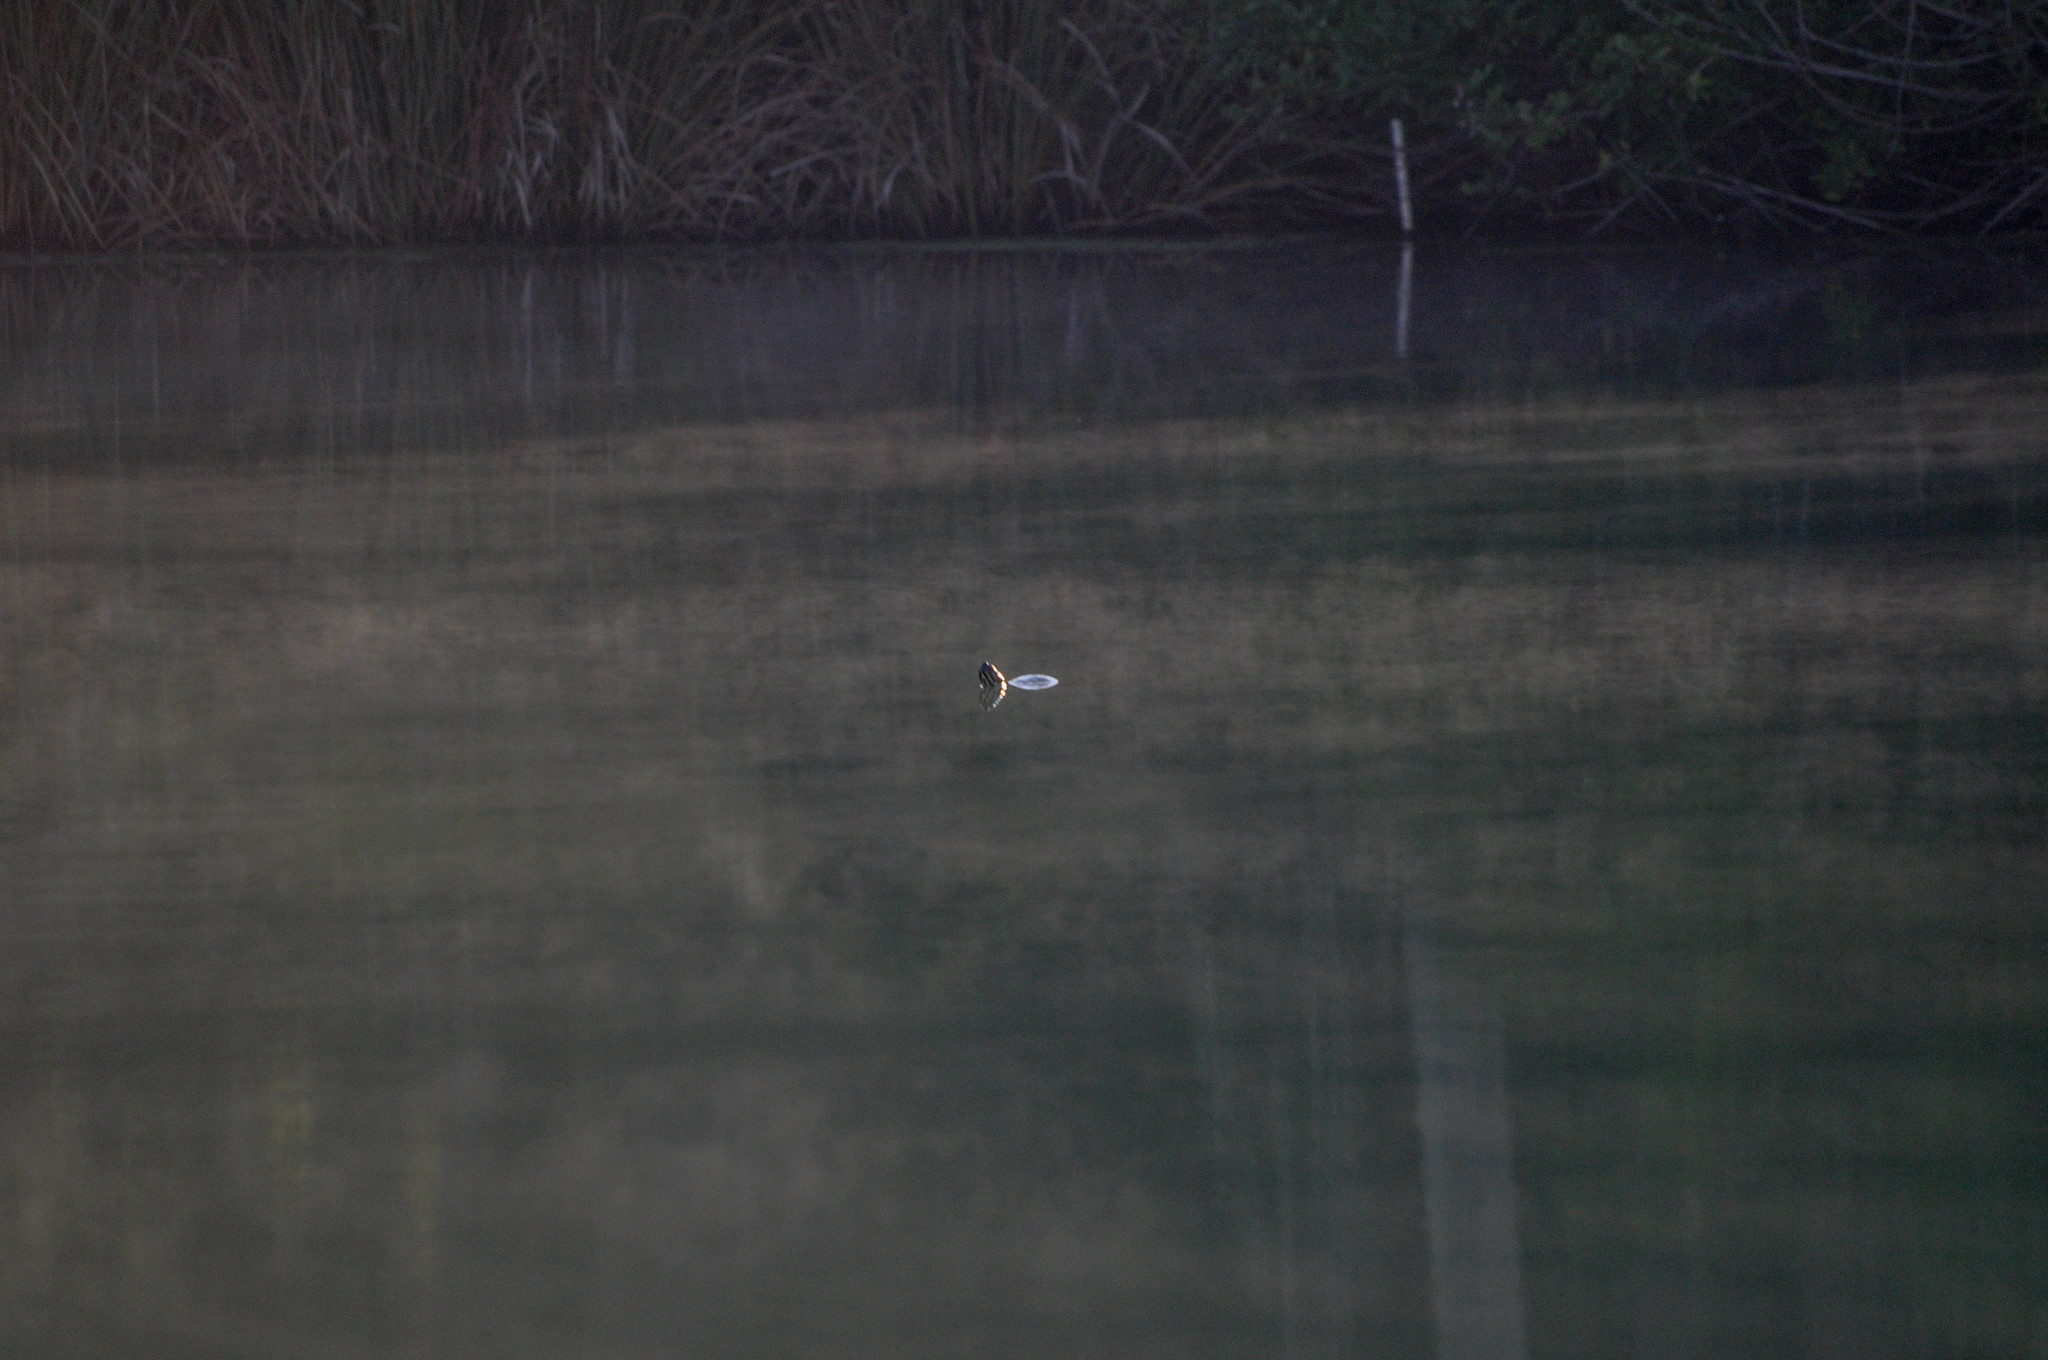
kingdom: Animalia
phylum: Chordata
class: Testudines
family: Emydidae
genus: Pseudemys
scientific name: Pseudemys
